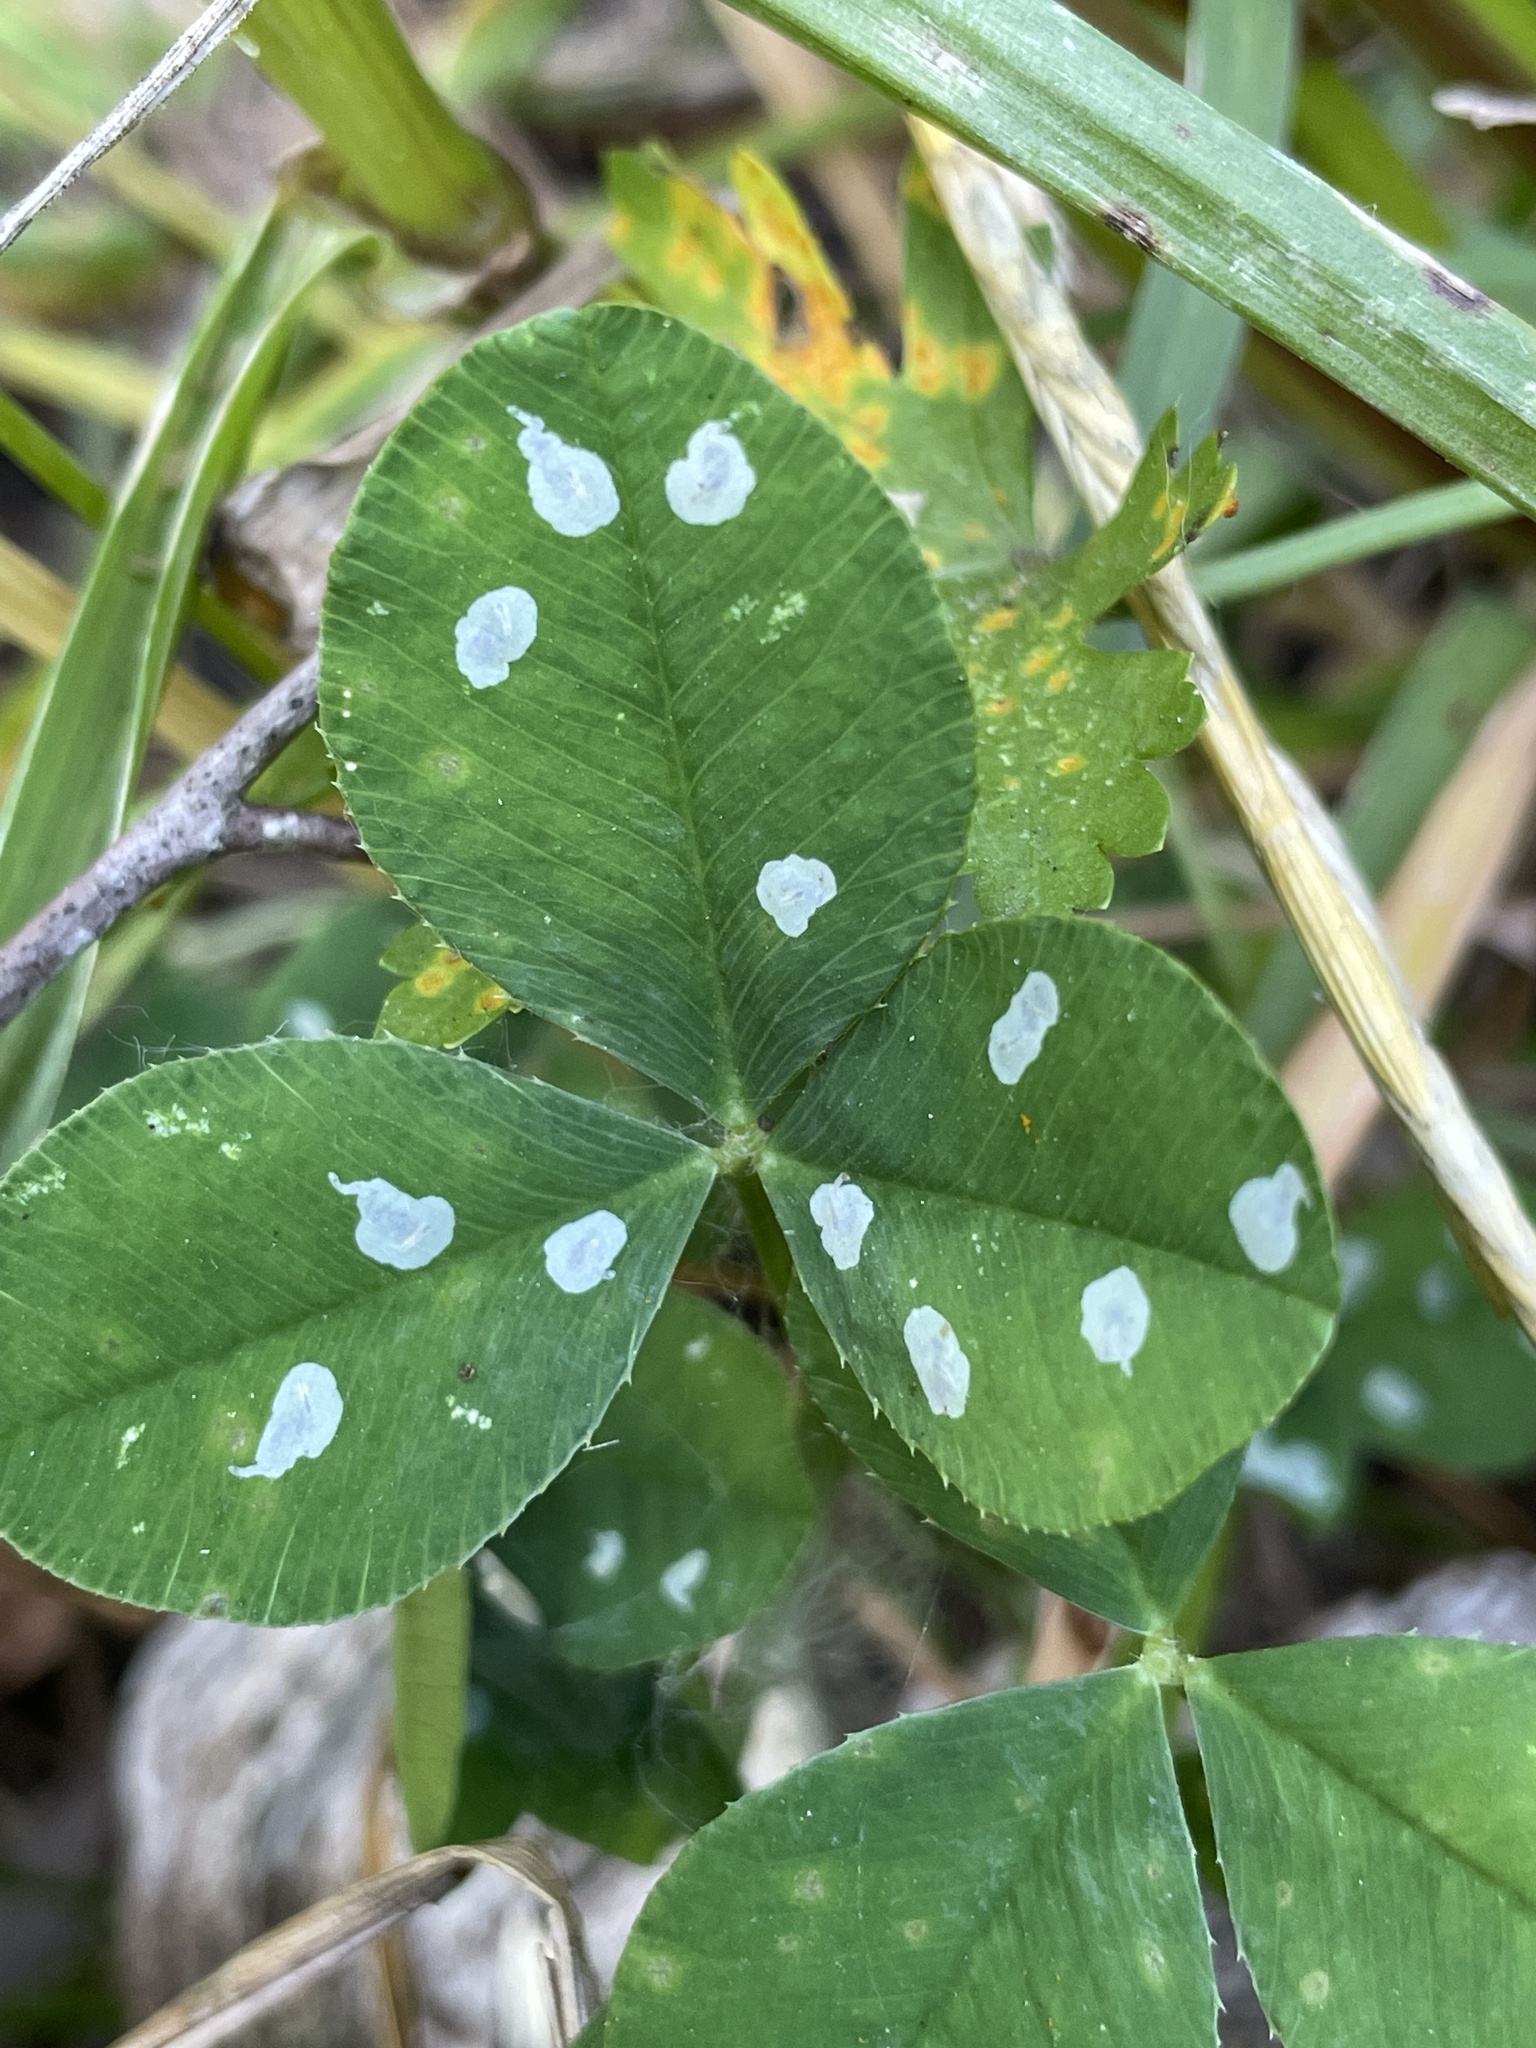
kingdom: Animalia
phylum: Arthropoda
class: Insecta
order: Lepidoptera
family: Gracillariidae
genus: Porphyrosela
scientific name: Porphyrosela minuta
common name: Leaf miner moth
